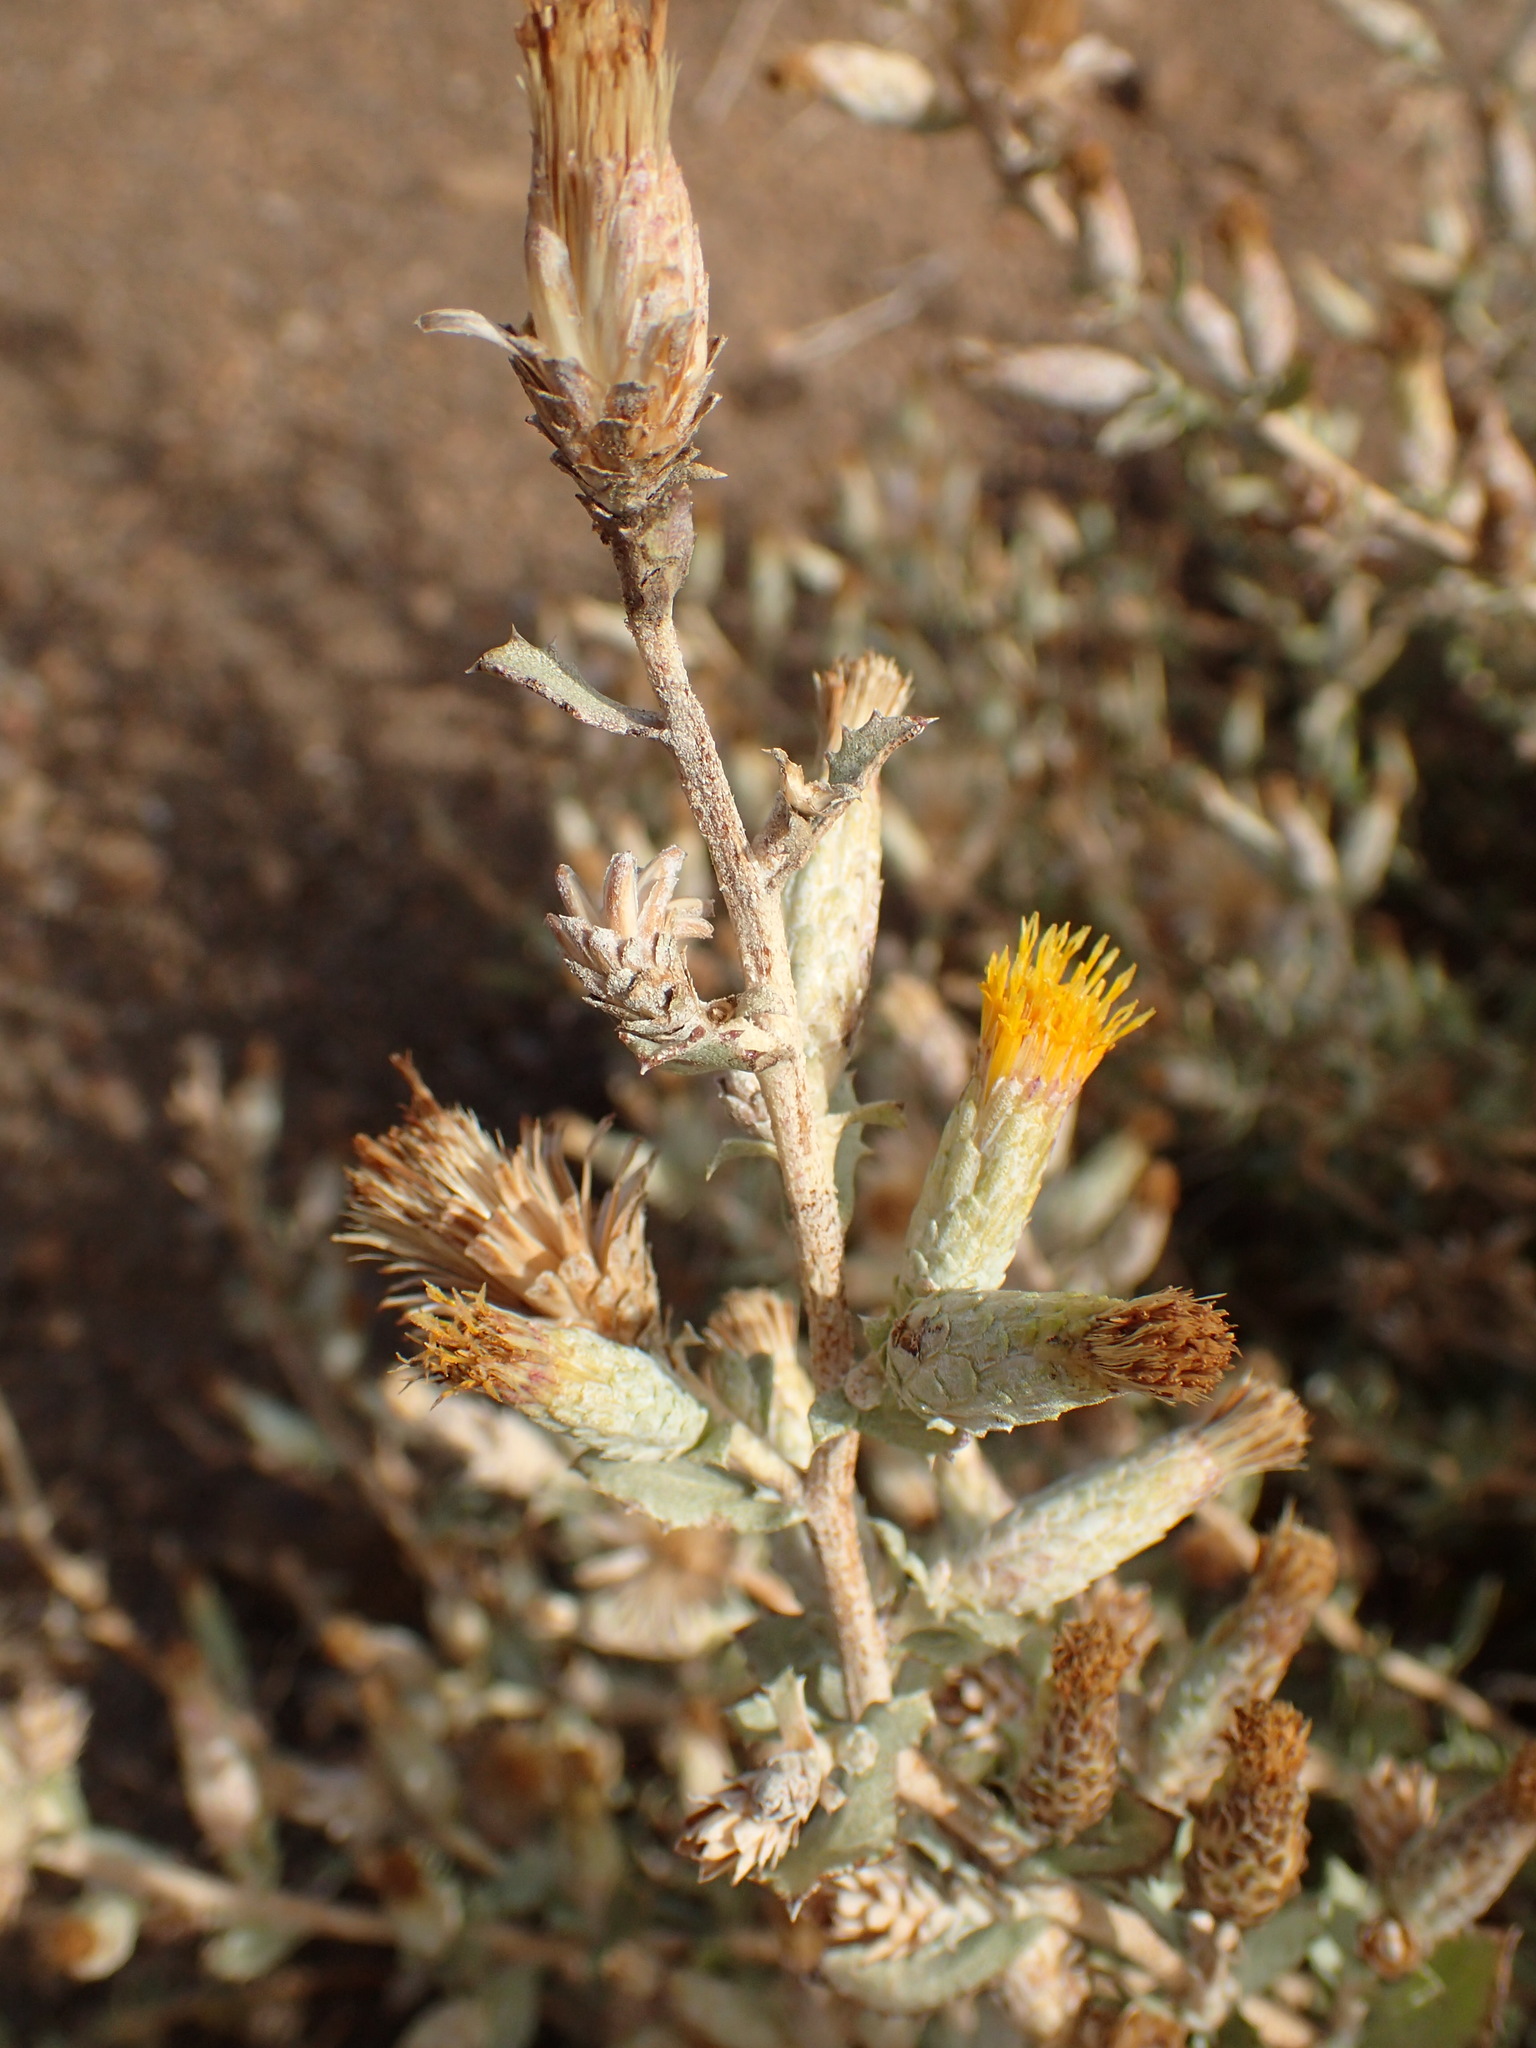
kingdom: Plantae
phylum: Tracheophyta
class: Magnoliopsida
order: Asterales
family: Asteraceae
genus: Hazardia
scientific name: Hazardia squarrosa
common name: Saw-tooth goldenbush
